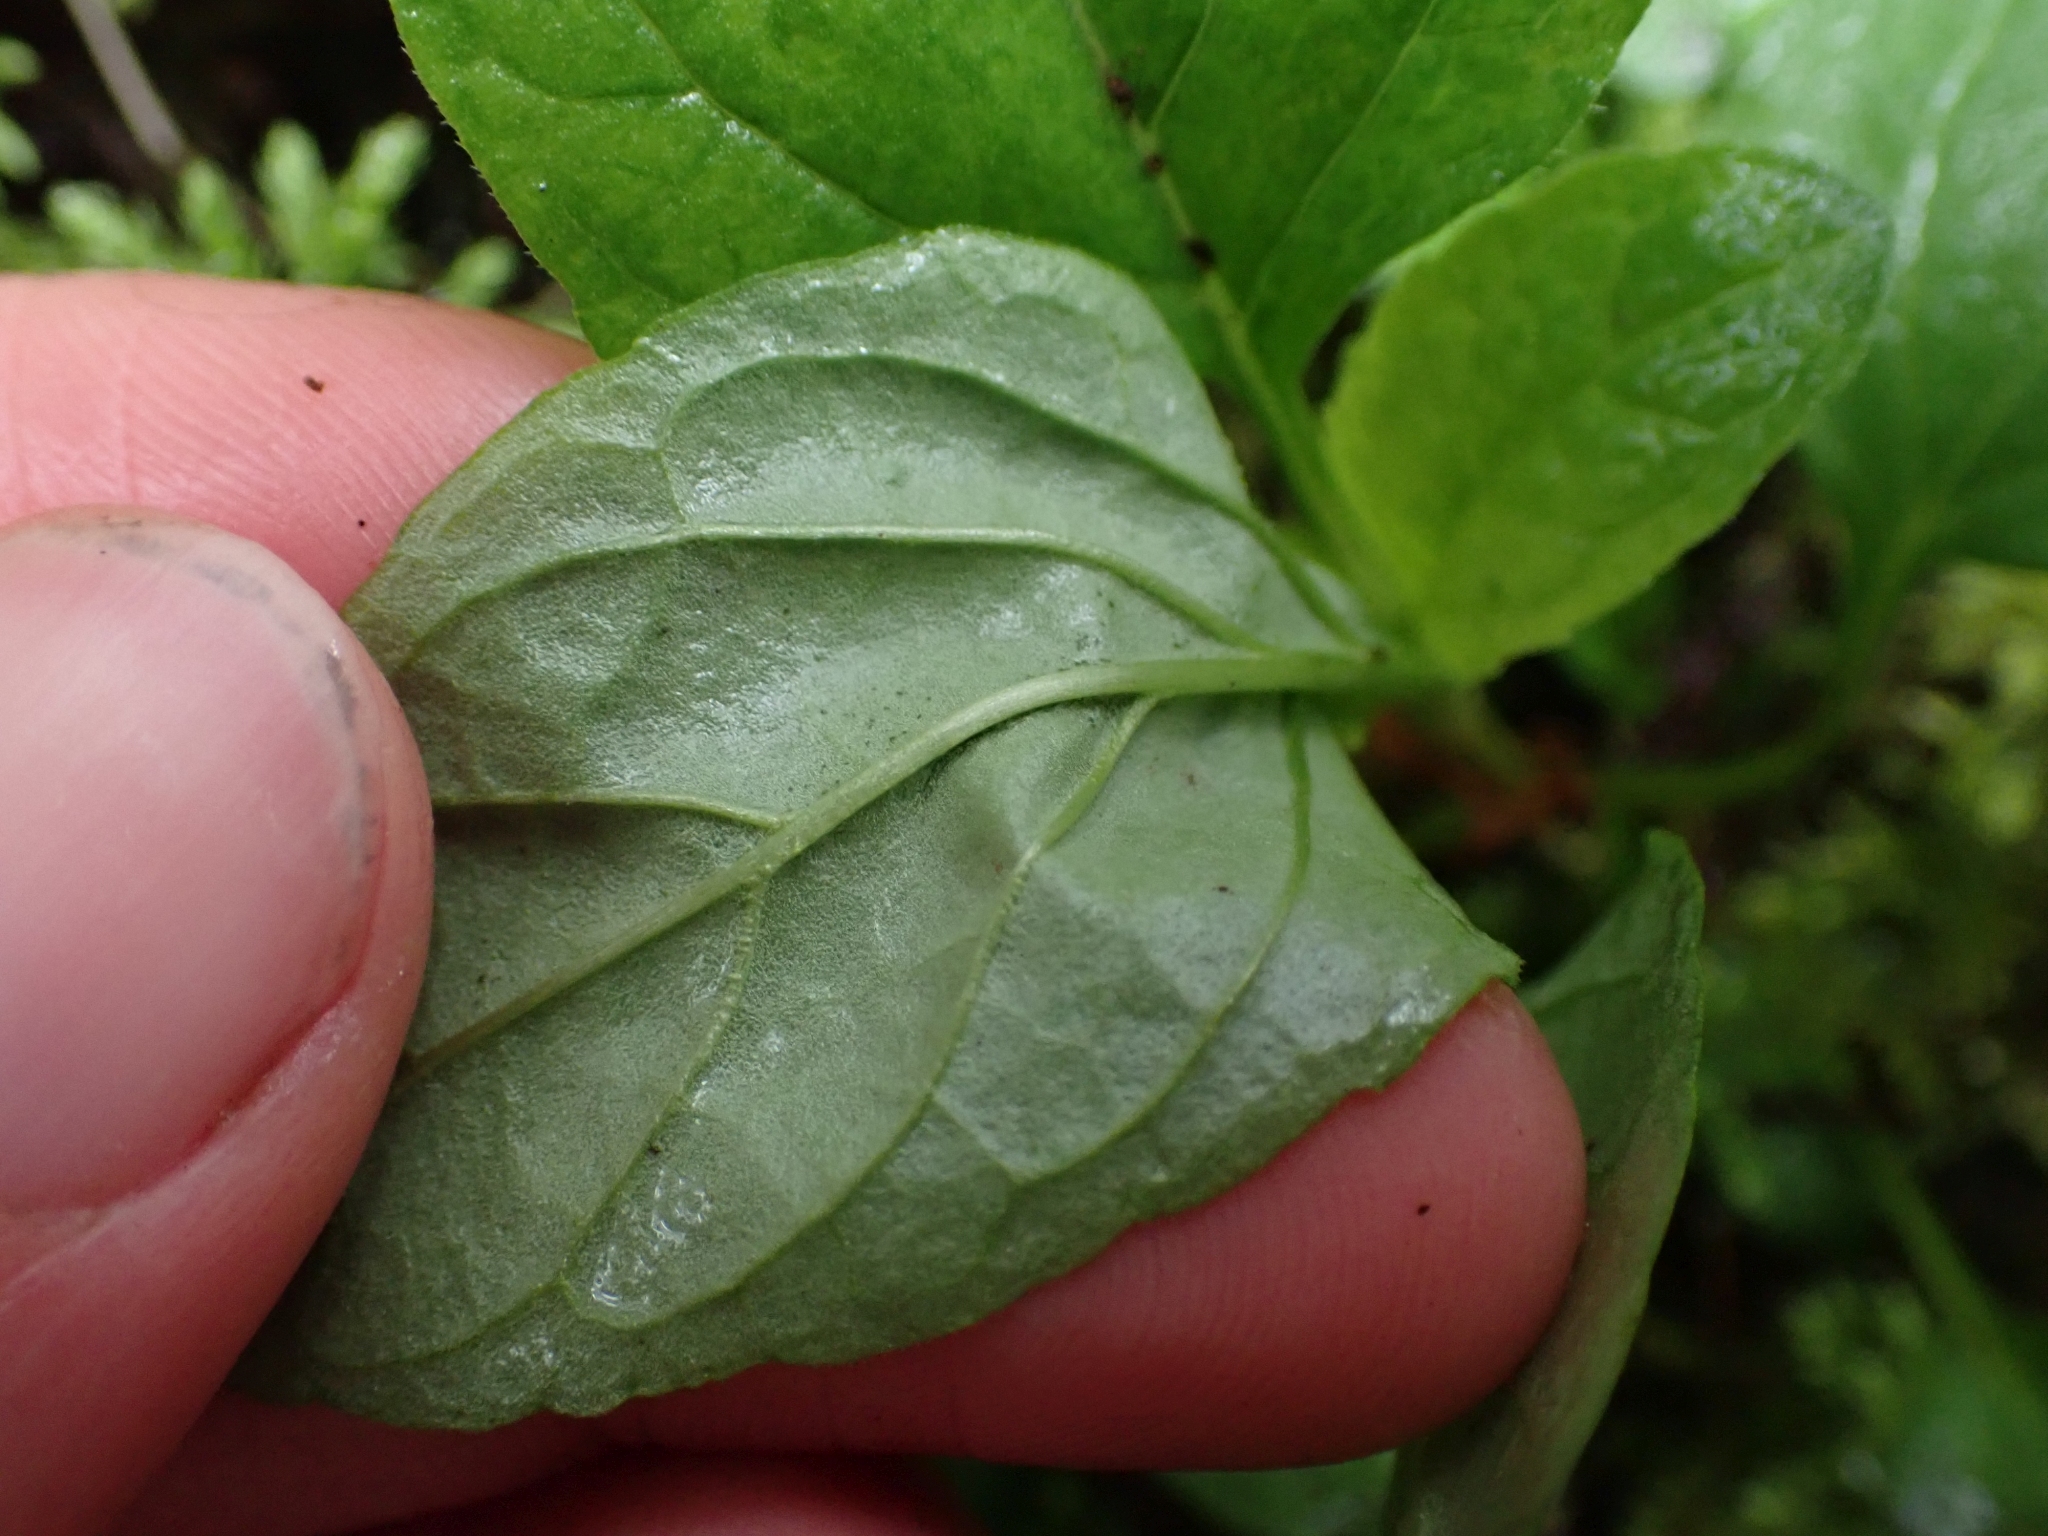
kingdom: Plantae
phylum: Tracheophyta
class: Magnoliopsida
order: Lamiales
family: Lamiaceae
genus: Prunella
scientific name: Prunella vulgaris
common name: Heal-all
